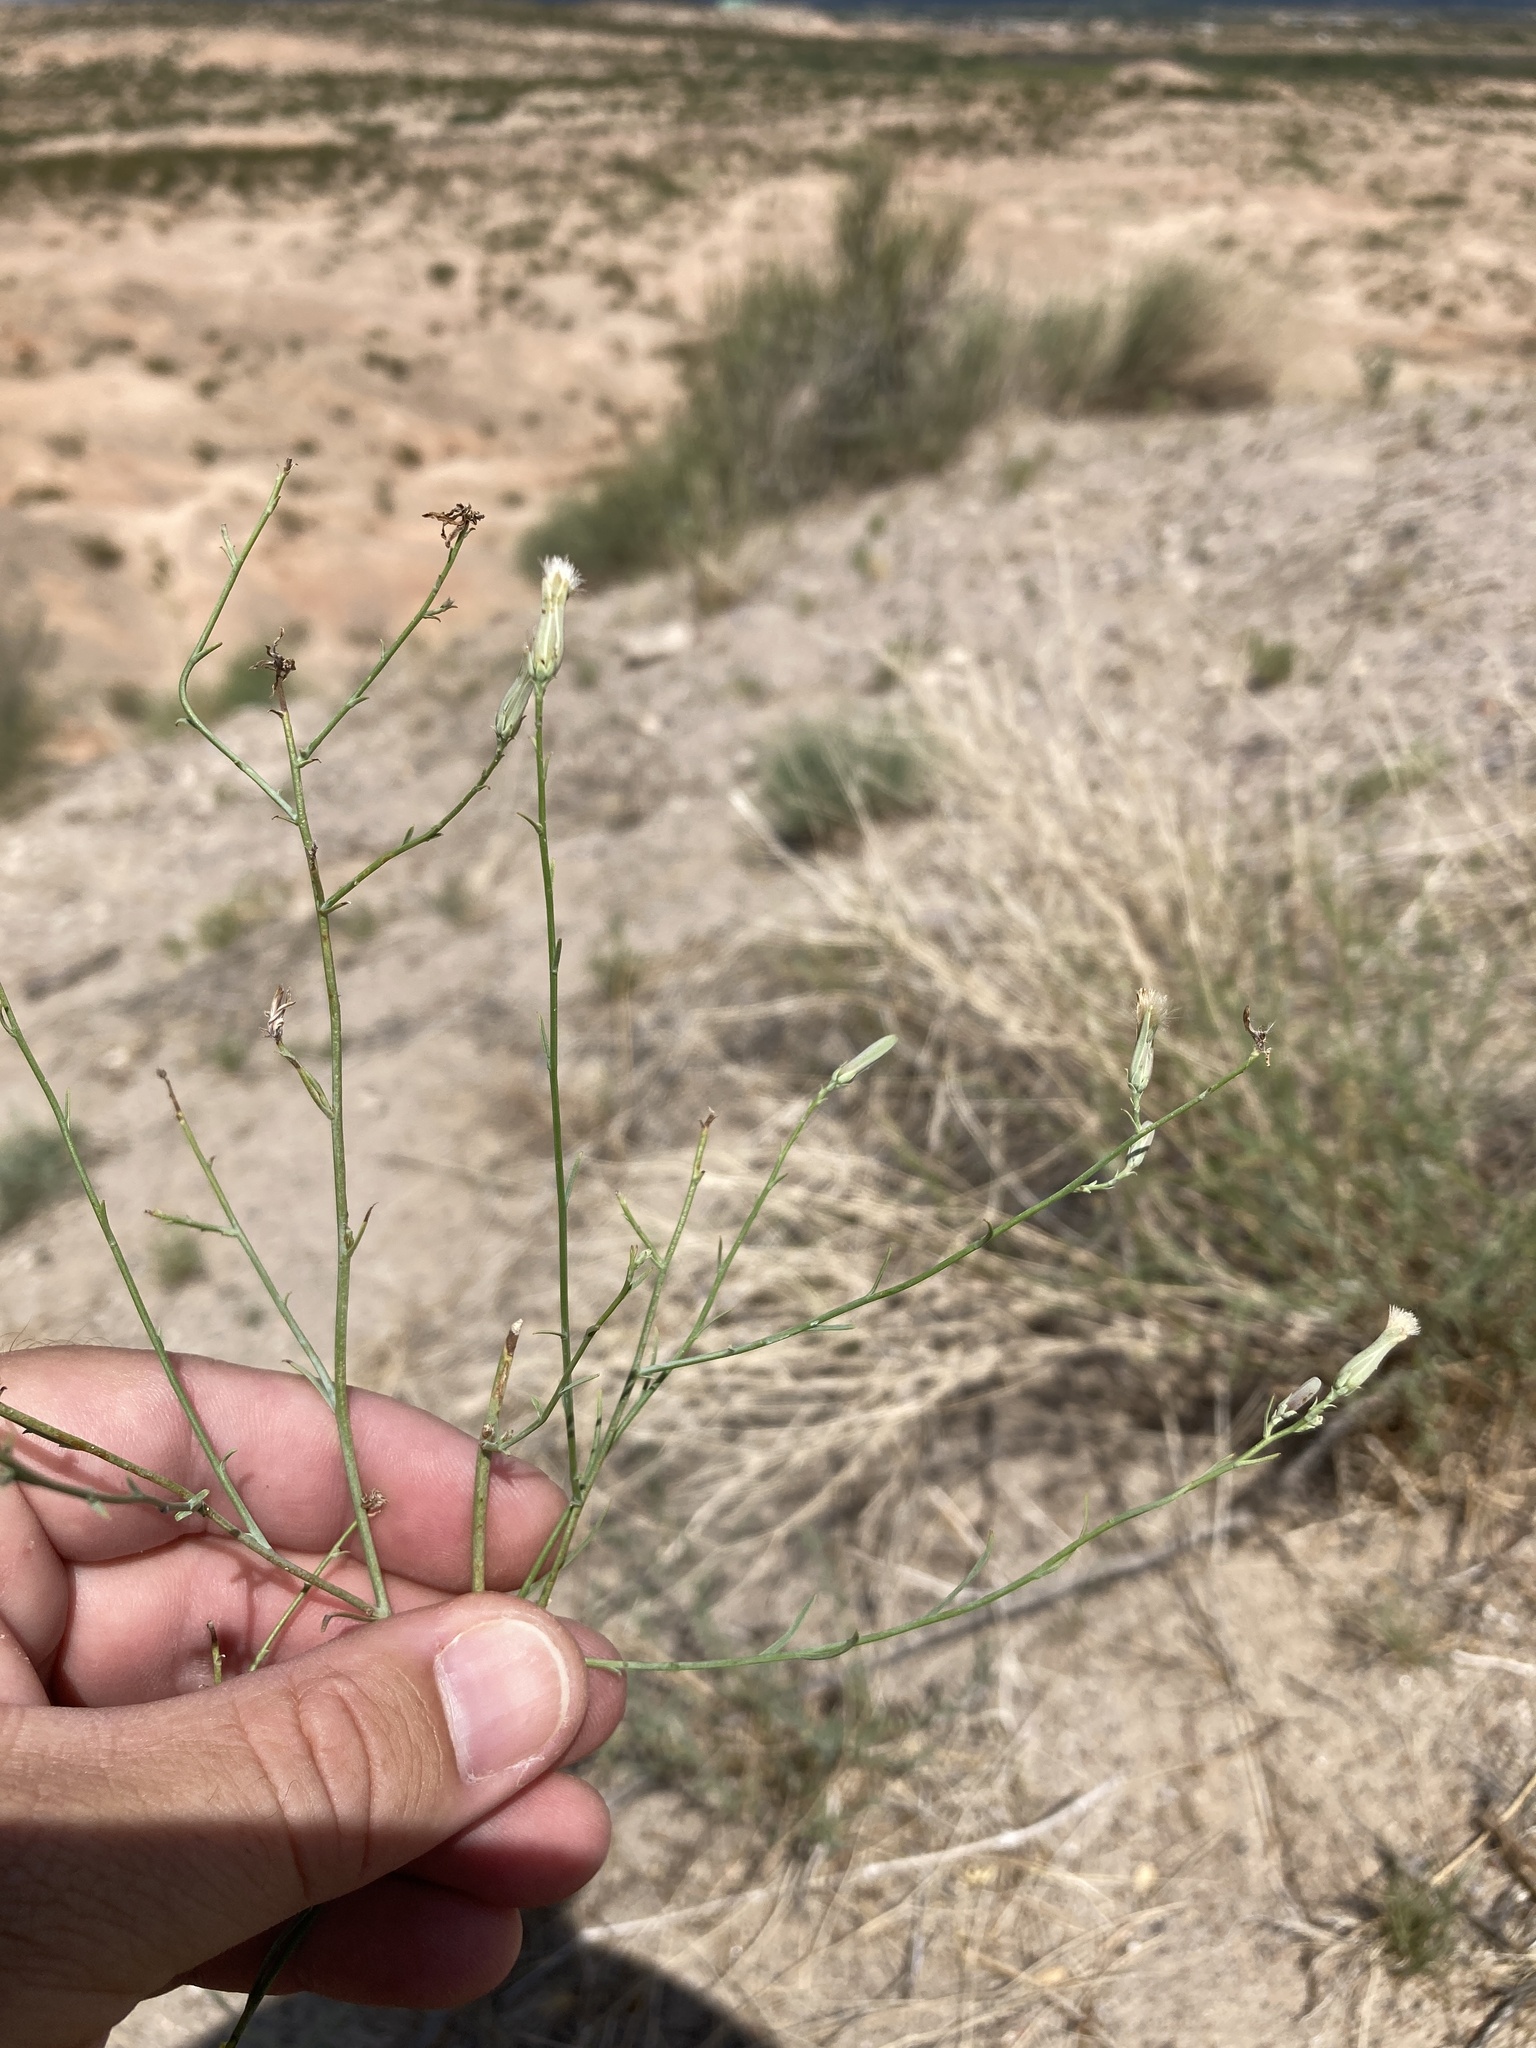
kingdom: Plantae
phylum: Tracheophyta
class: Magnoliopsida
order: Asterales
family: Asteraceae
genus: Stephanomeria
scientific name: Stephanomeria pauciflora
